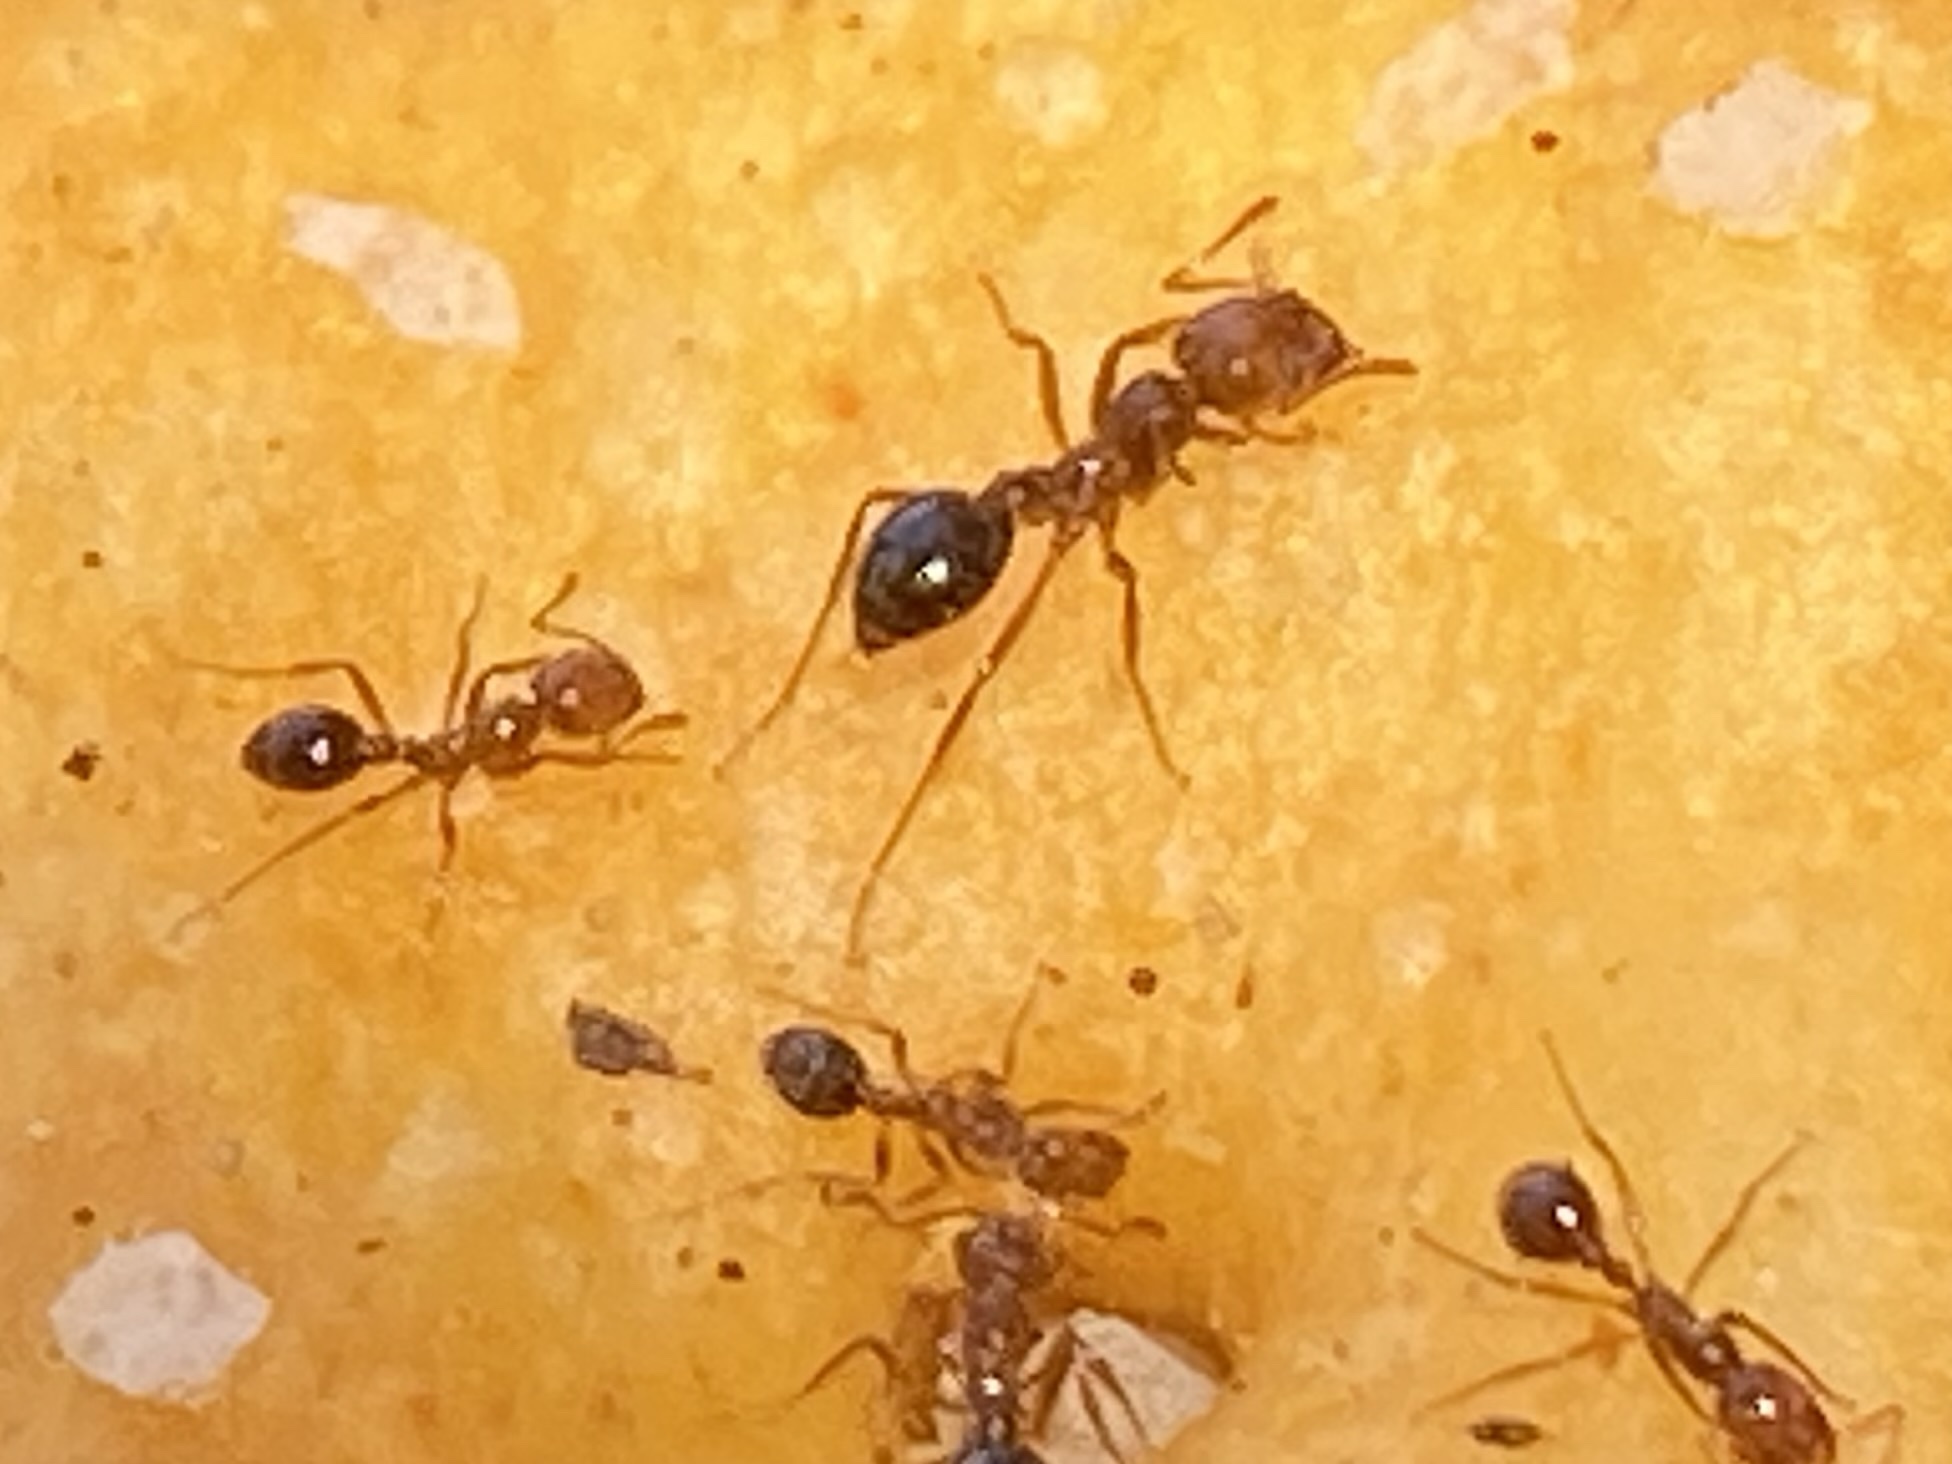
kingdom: Animalia
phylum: Arthropoda
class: Insecta
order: Hymenoptera
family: Formicidae
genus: Solenopsis
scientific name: Solenopsis invicta
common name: Red imported fire ant
